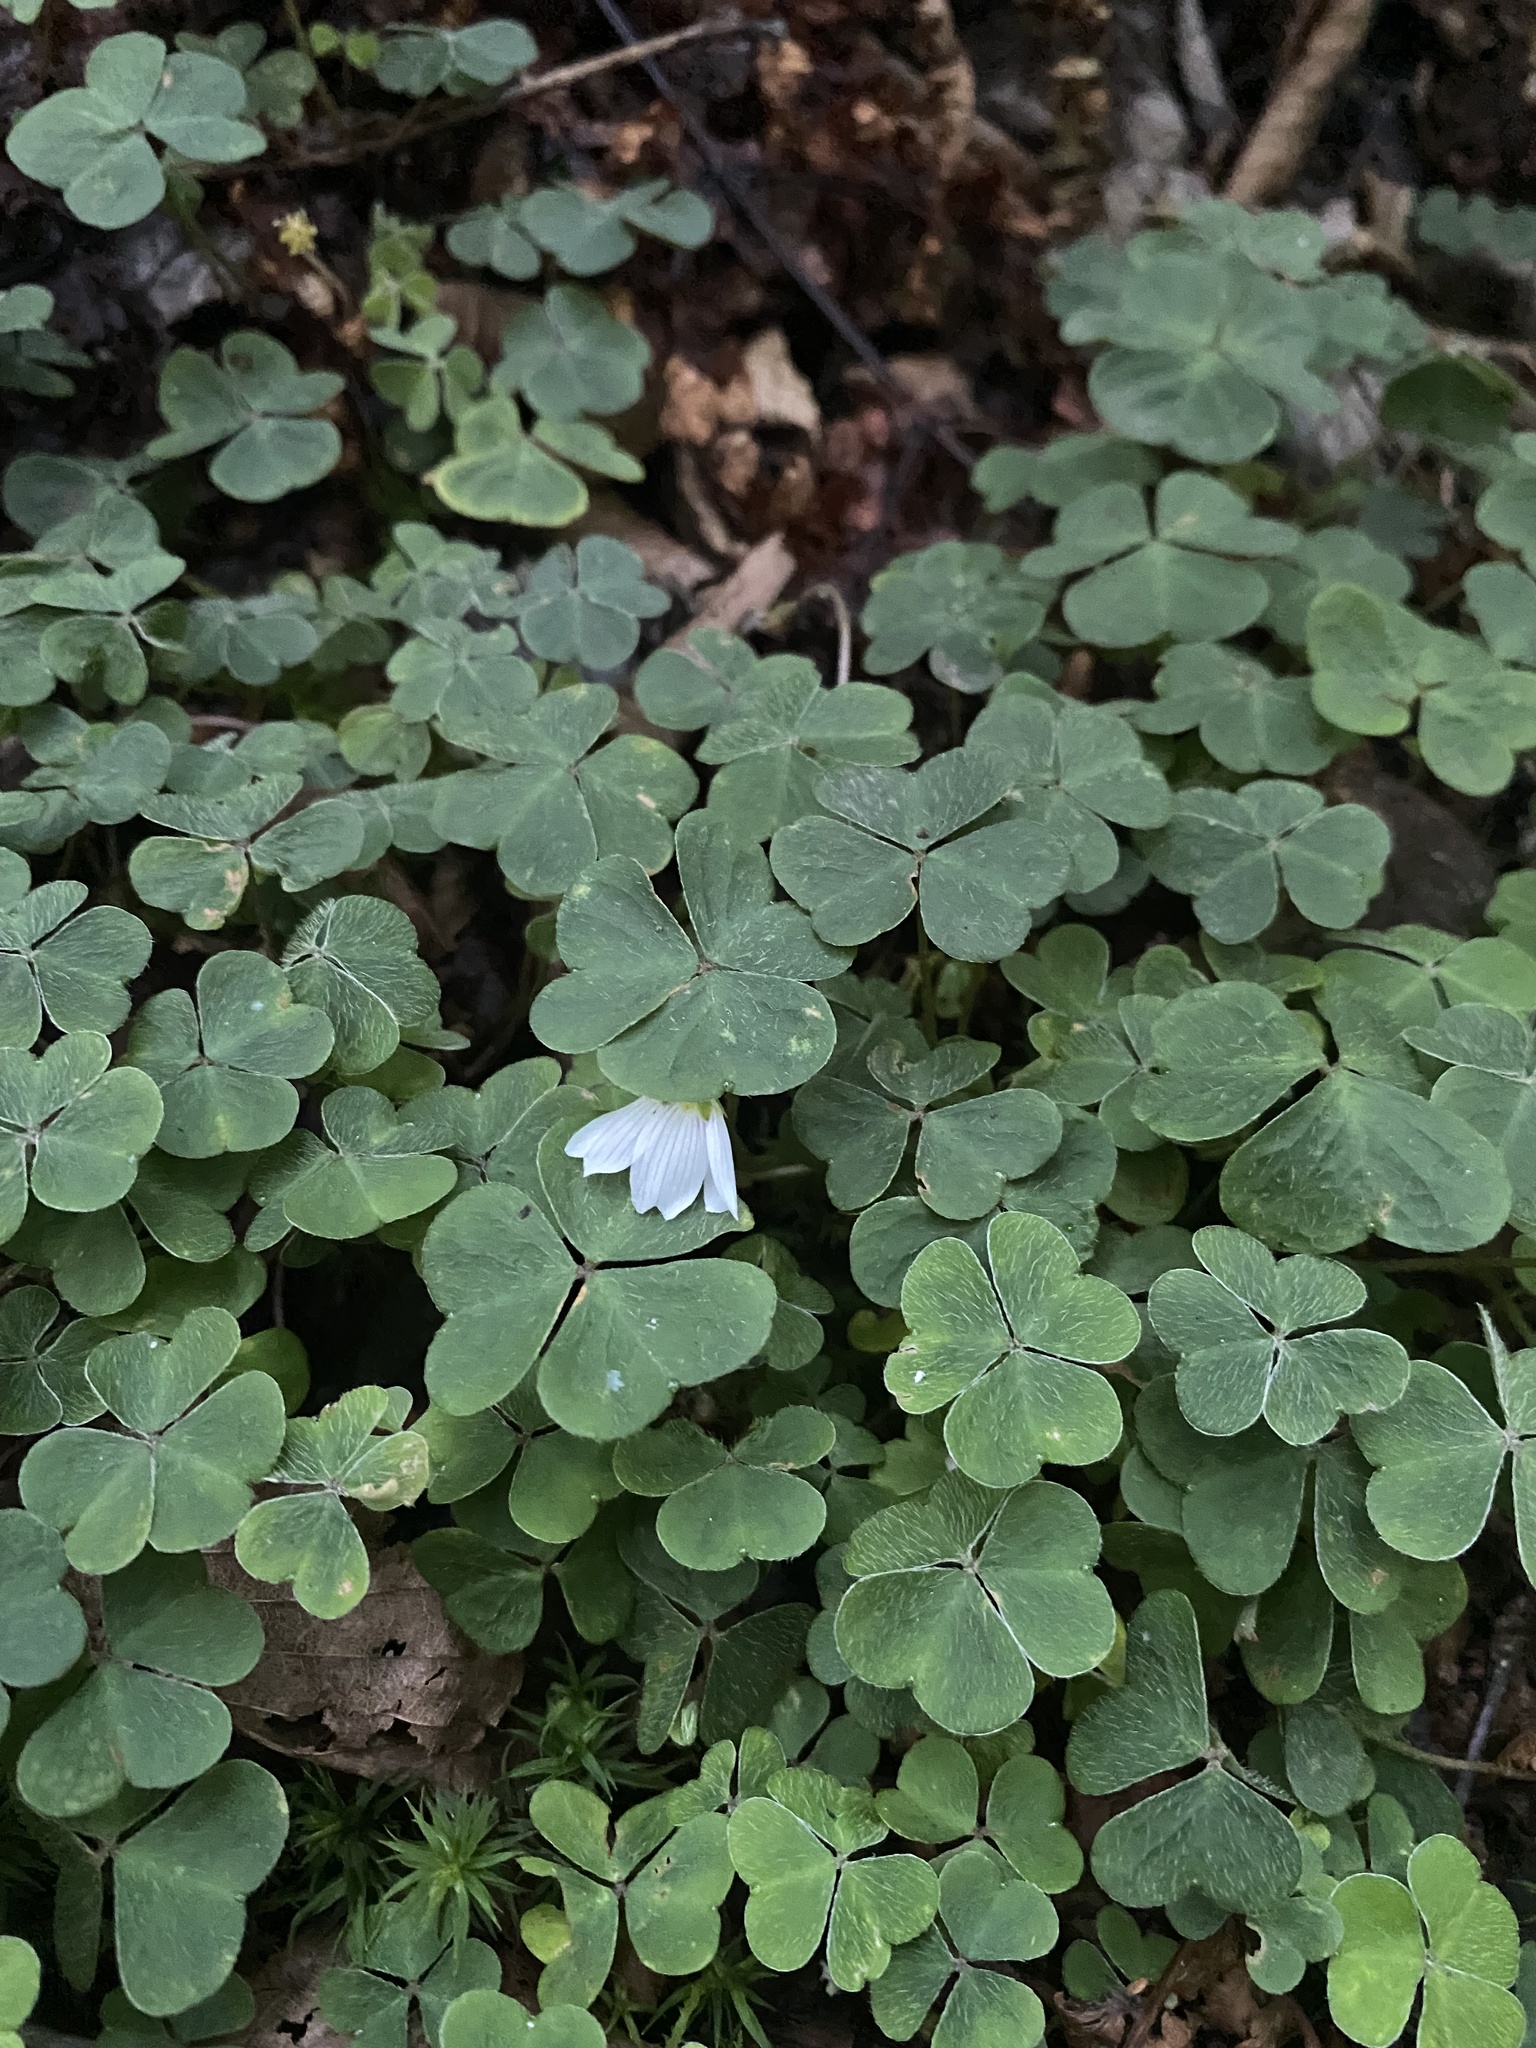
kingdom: Plantae
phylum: Tracheophyta
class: Magnoliopsida
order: Oxalidales
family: Oxalidaceae
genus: Oxalis
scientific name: Oxalis montana
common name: American wood-sorrel
